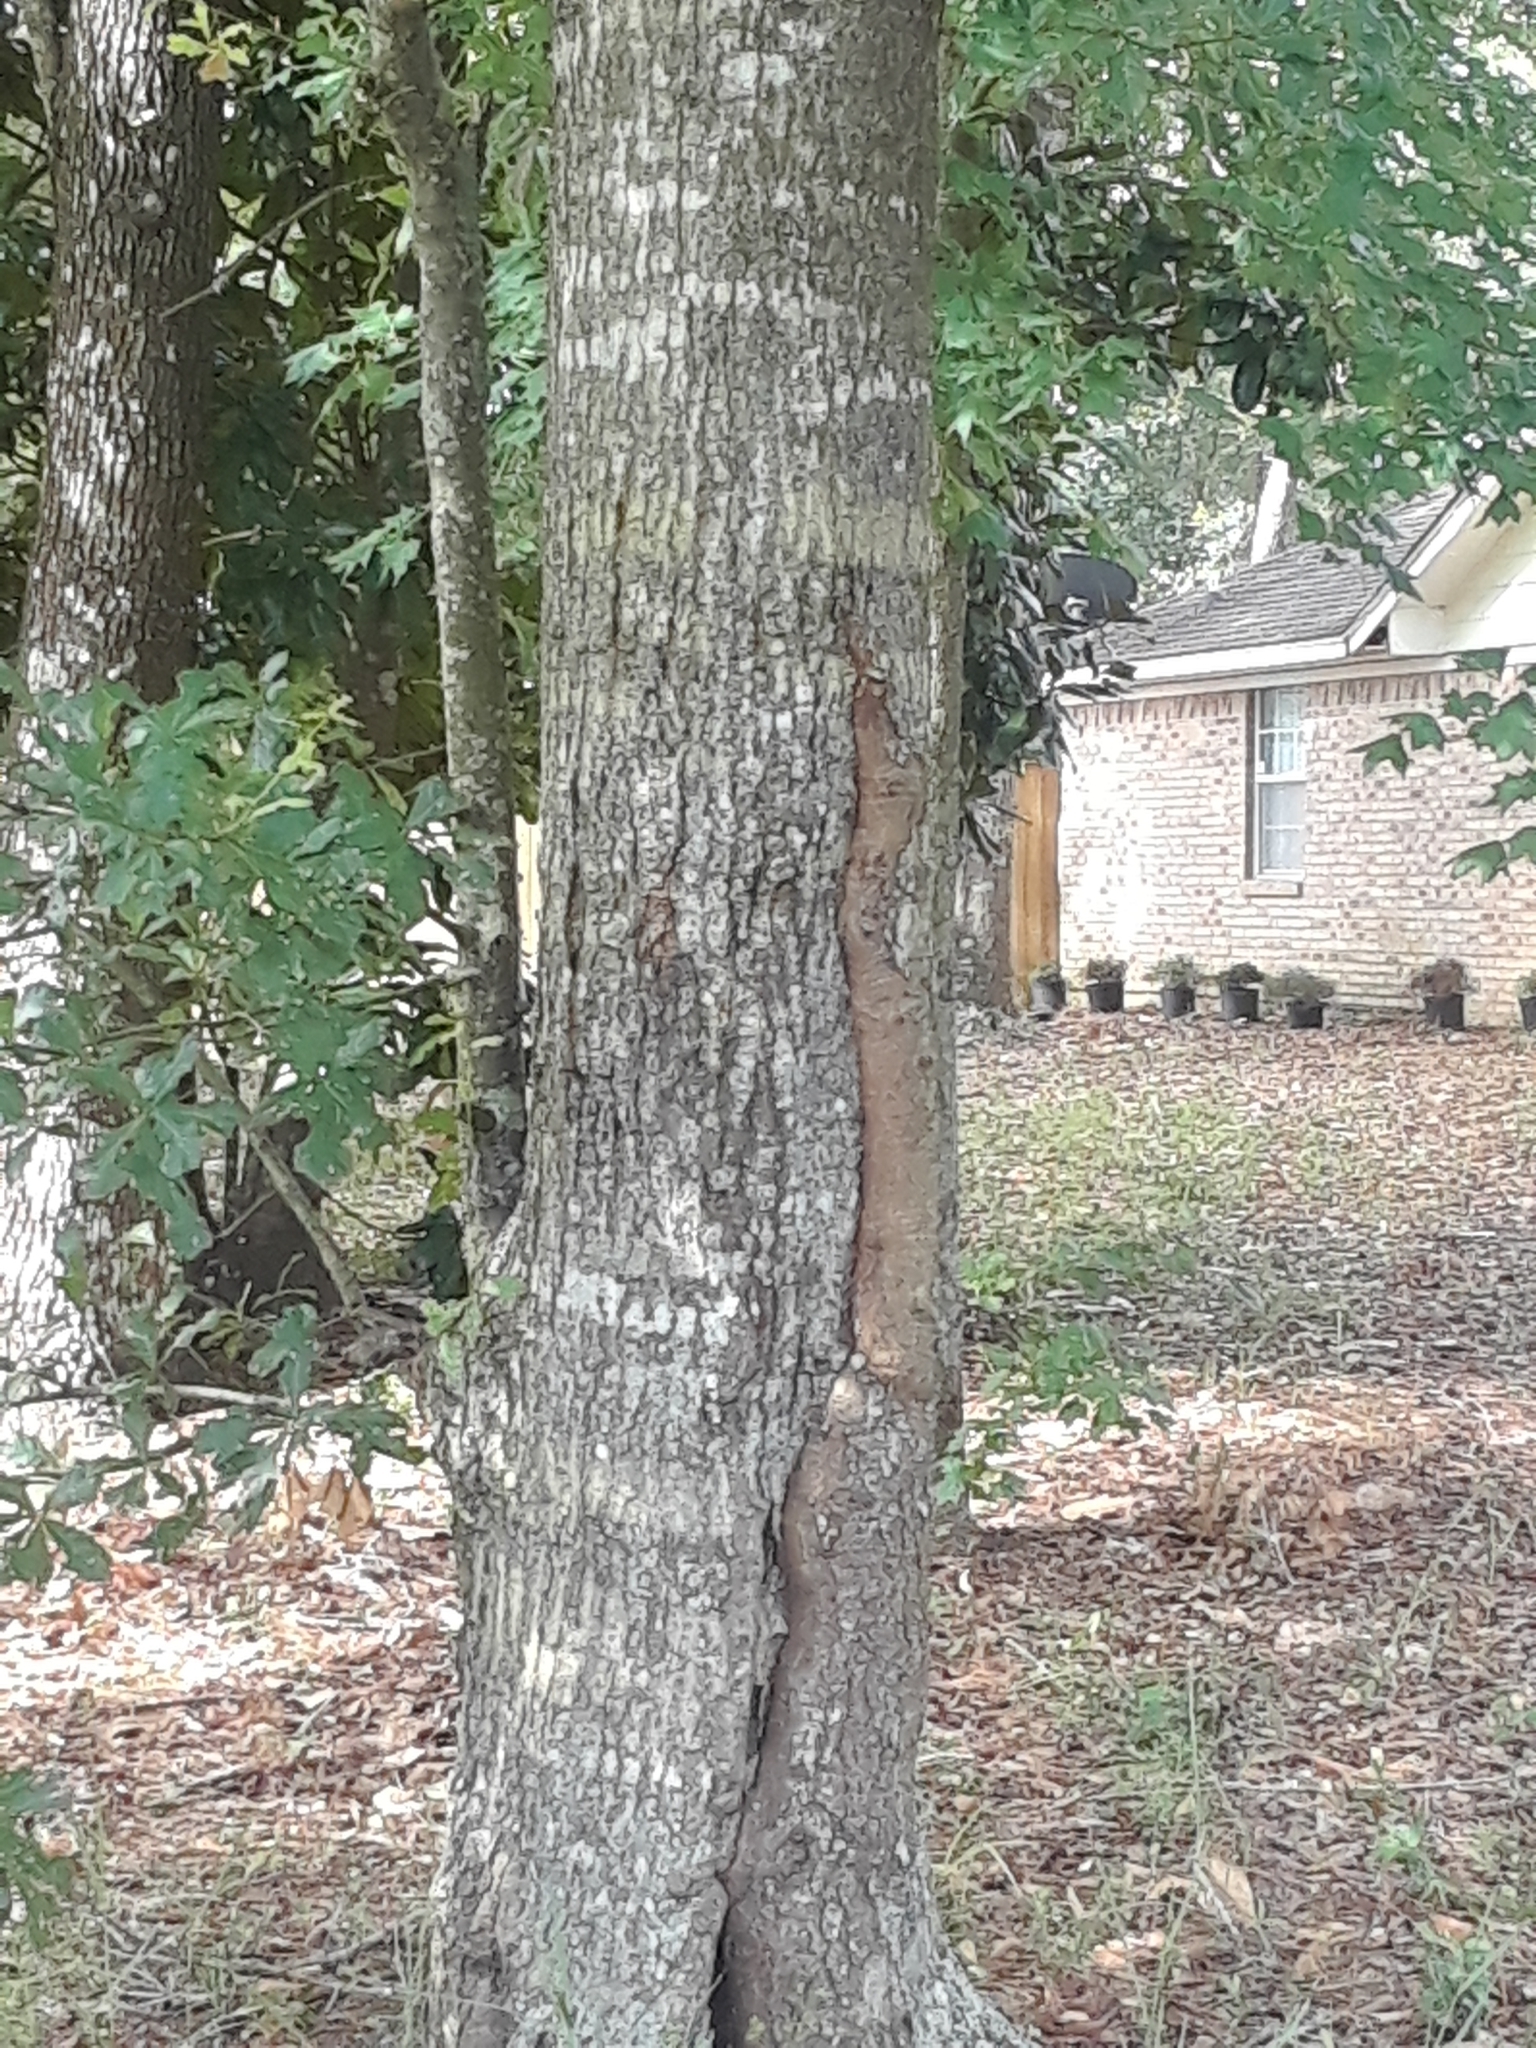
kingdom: Plantae
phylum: Tracheophyta
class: Magnoliopsida
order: Fagales
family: Fagaceae
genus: Quercus
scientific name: Quercus nigra
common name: Water oak
